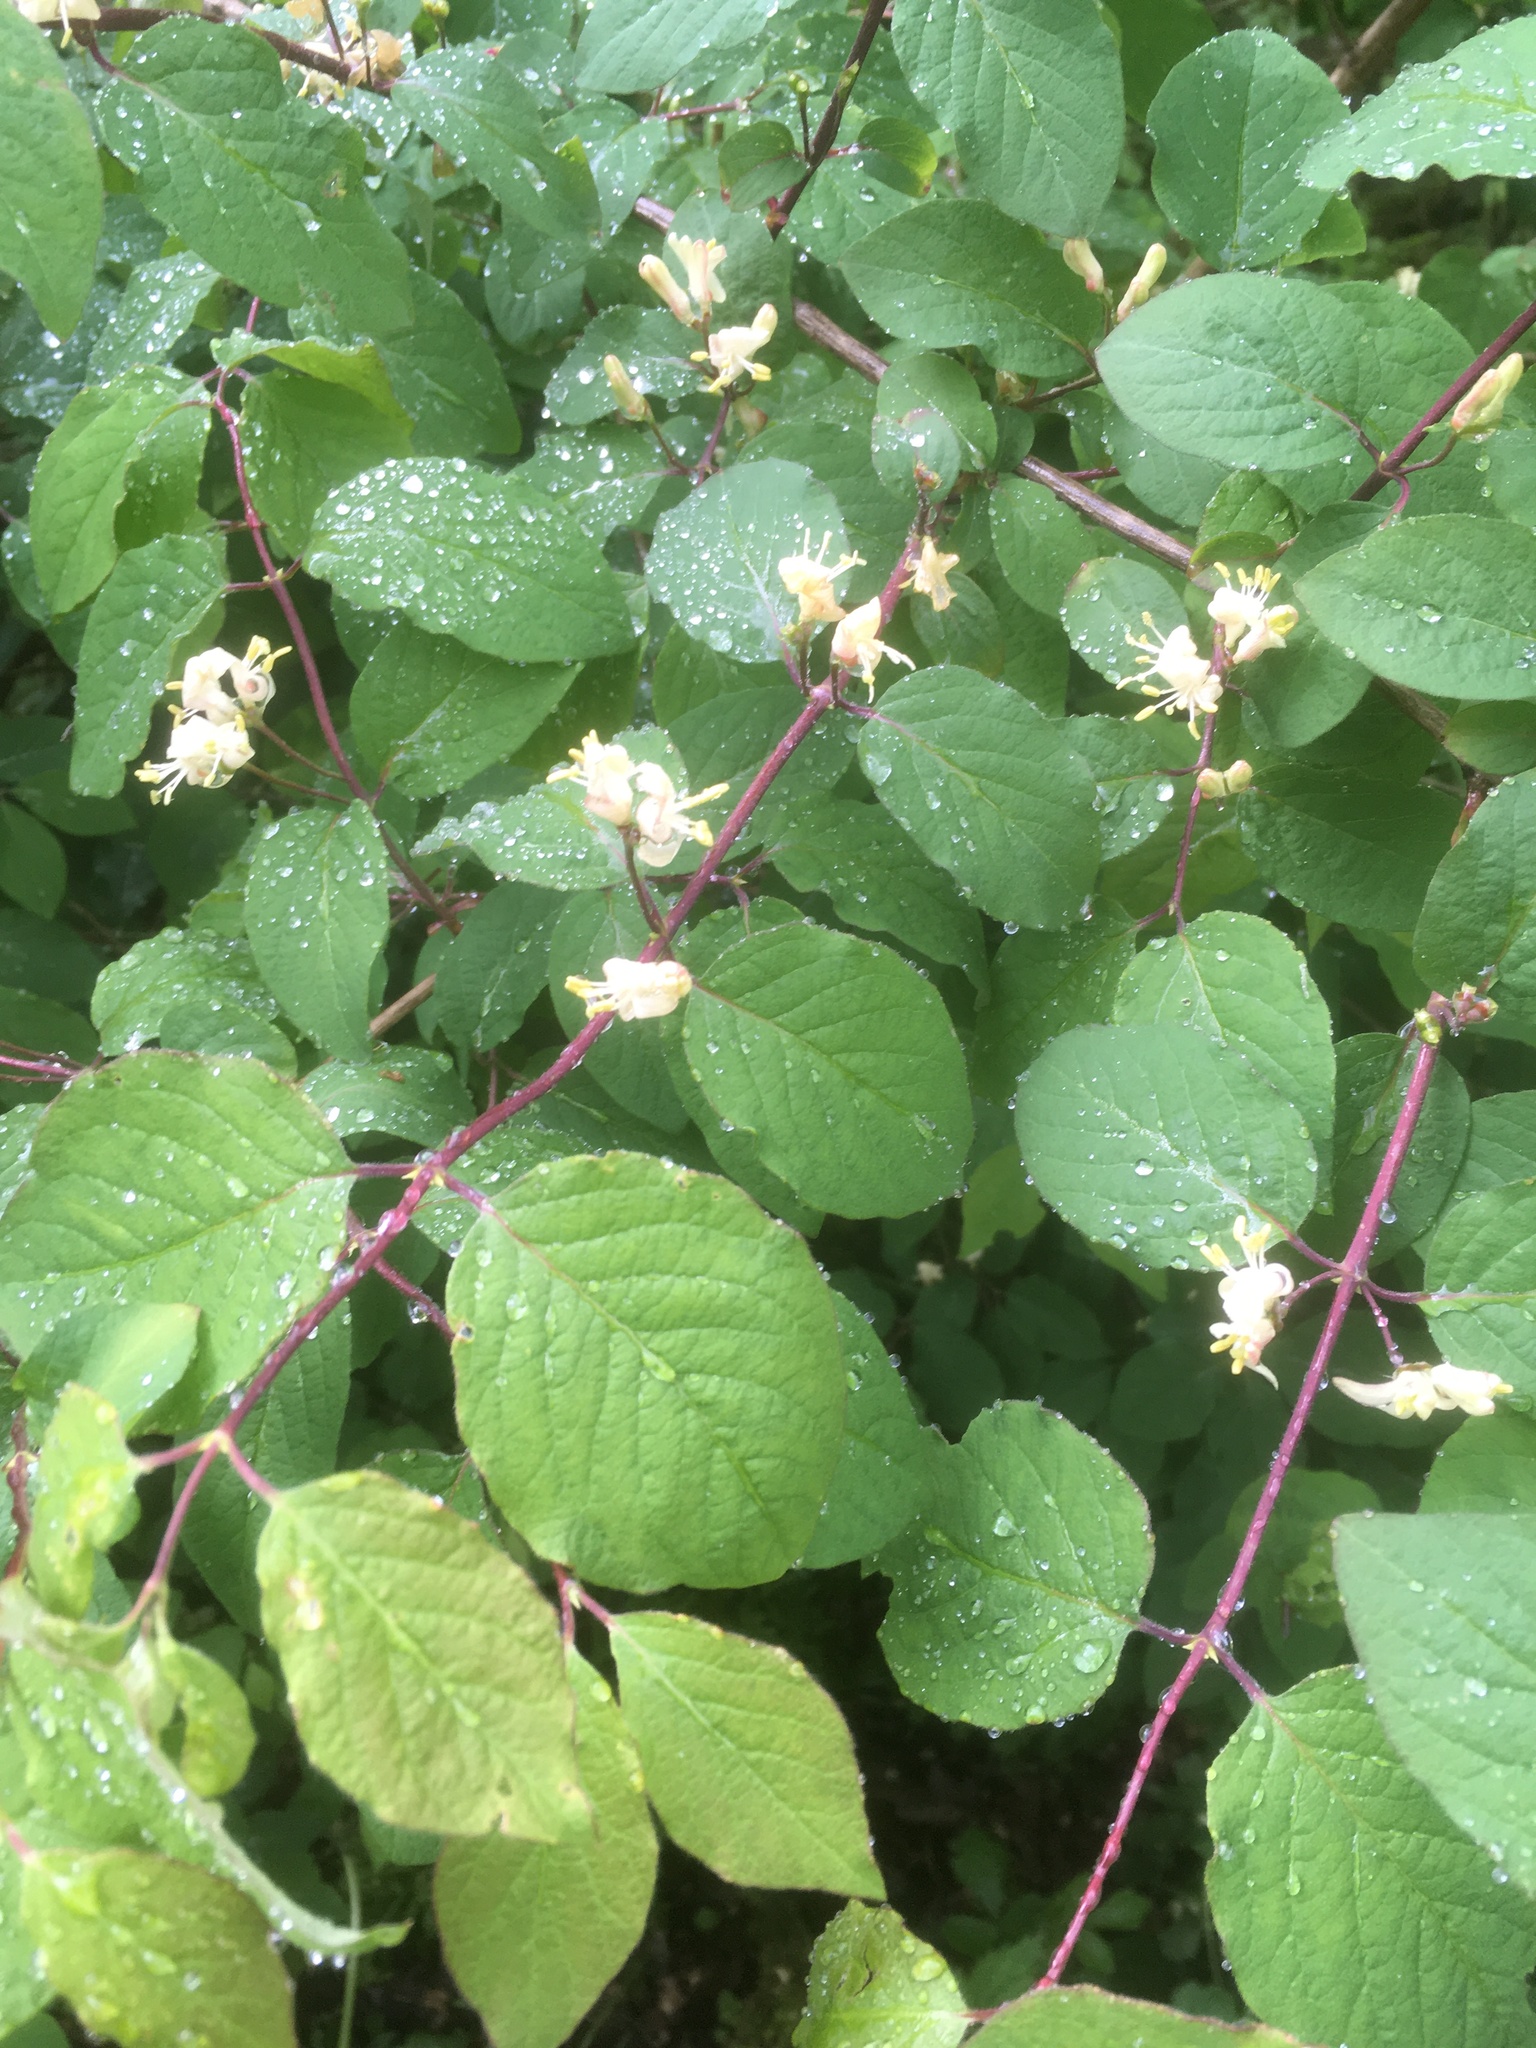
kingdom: Plantae
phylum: Tracheophyta
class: Magnoliopsida
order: Dipsacales
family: Caprifoliaceae
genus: Lonicera
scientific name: Lonicera xylosteum
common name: Fly honeysuckle
